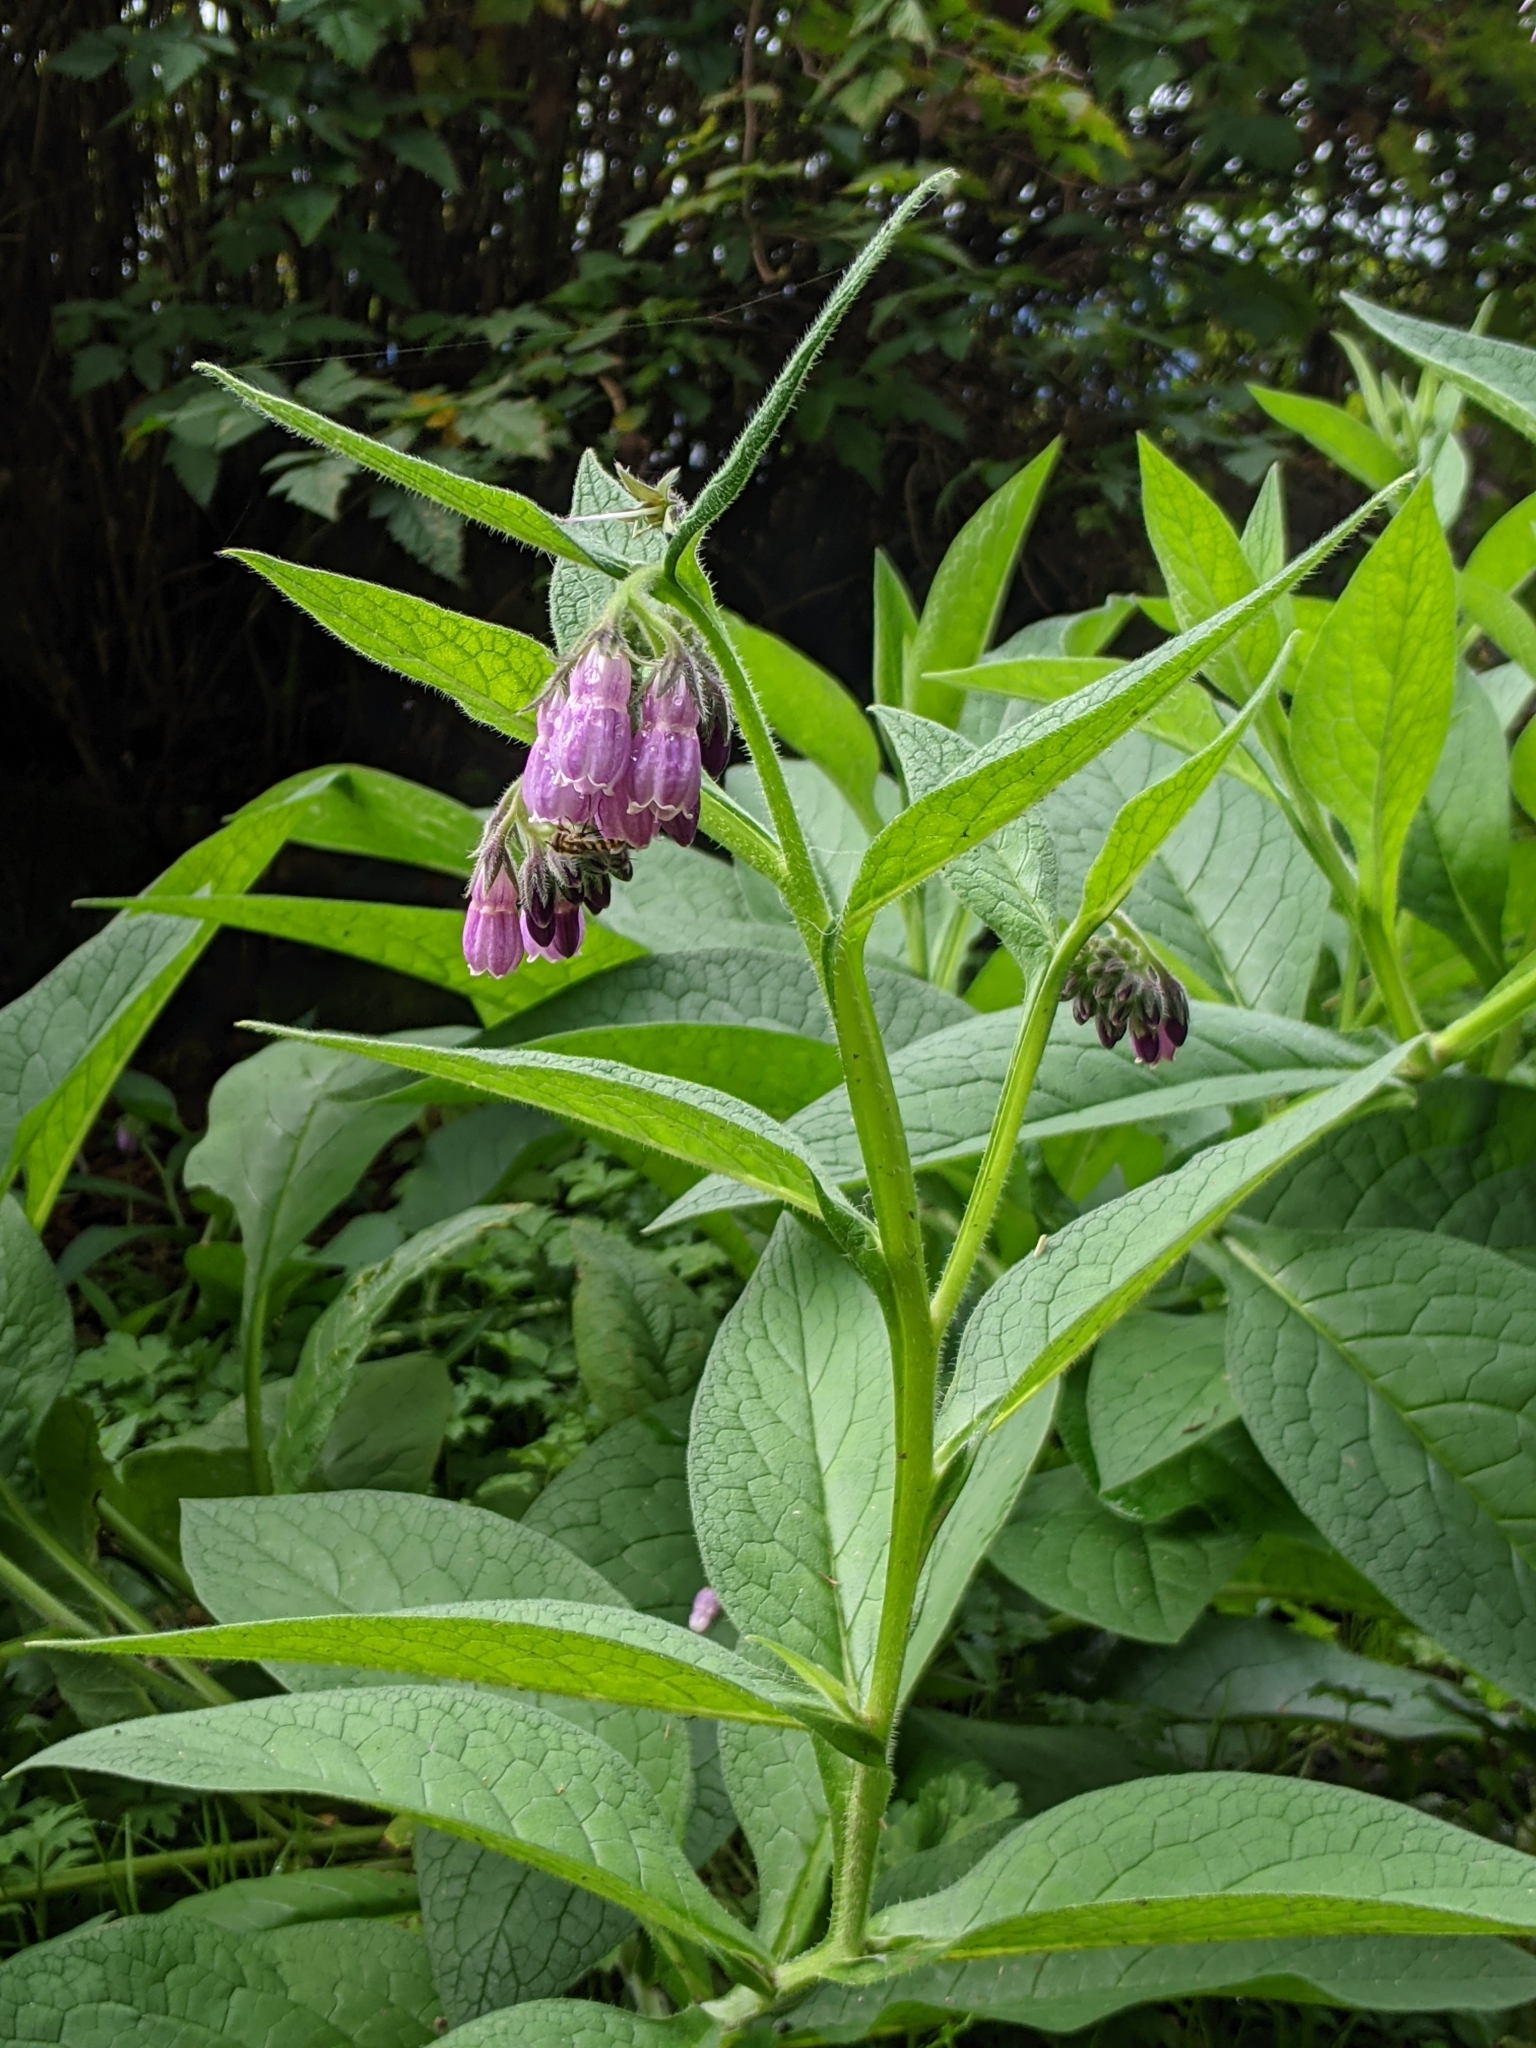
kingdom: Plantae
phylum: Tracheophyta
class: Magnoliopsida
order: Boraginales
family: Boraginaceae
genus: Symphytum
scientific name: Symphytum officinale
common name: Common comfrey
